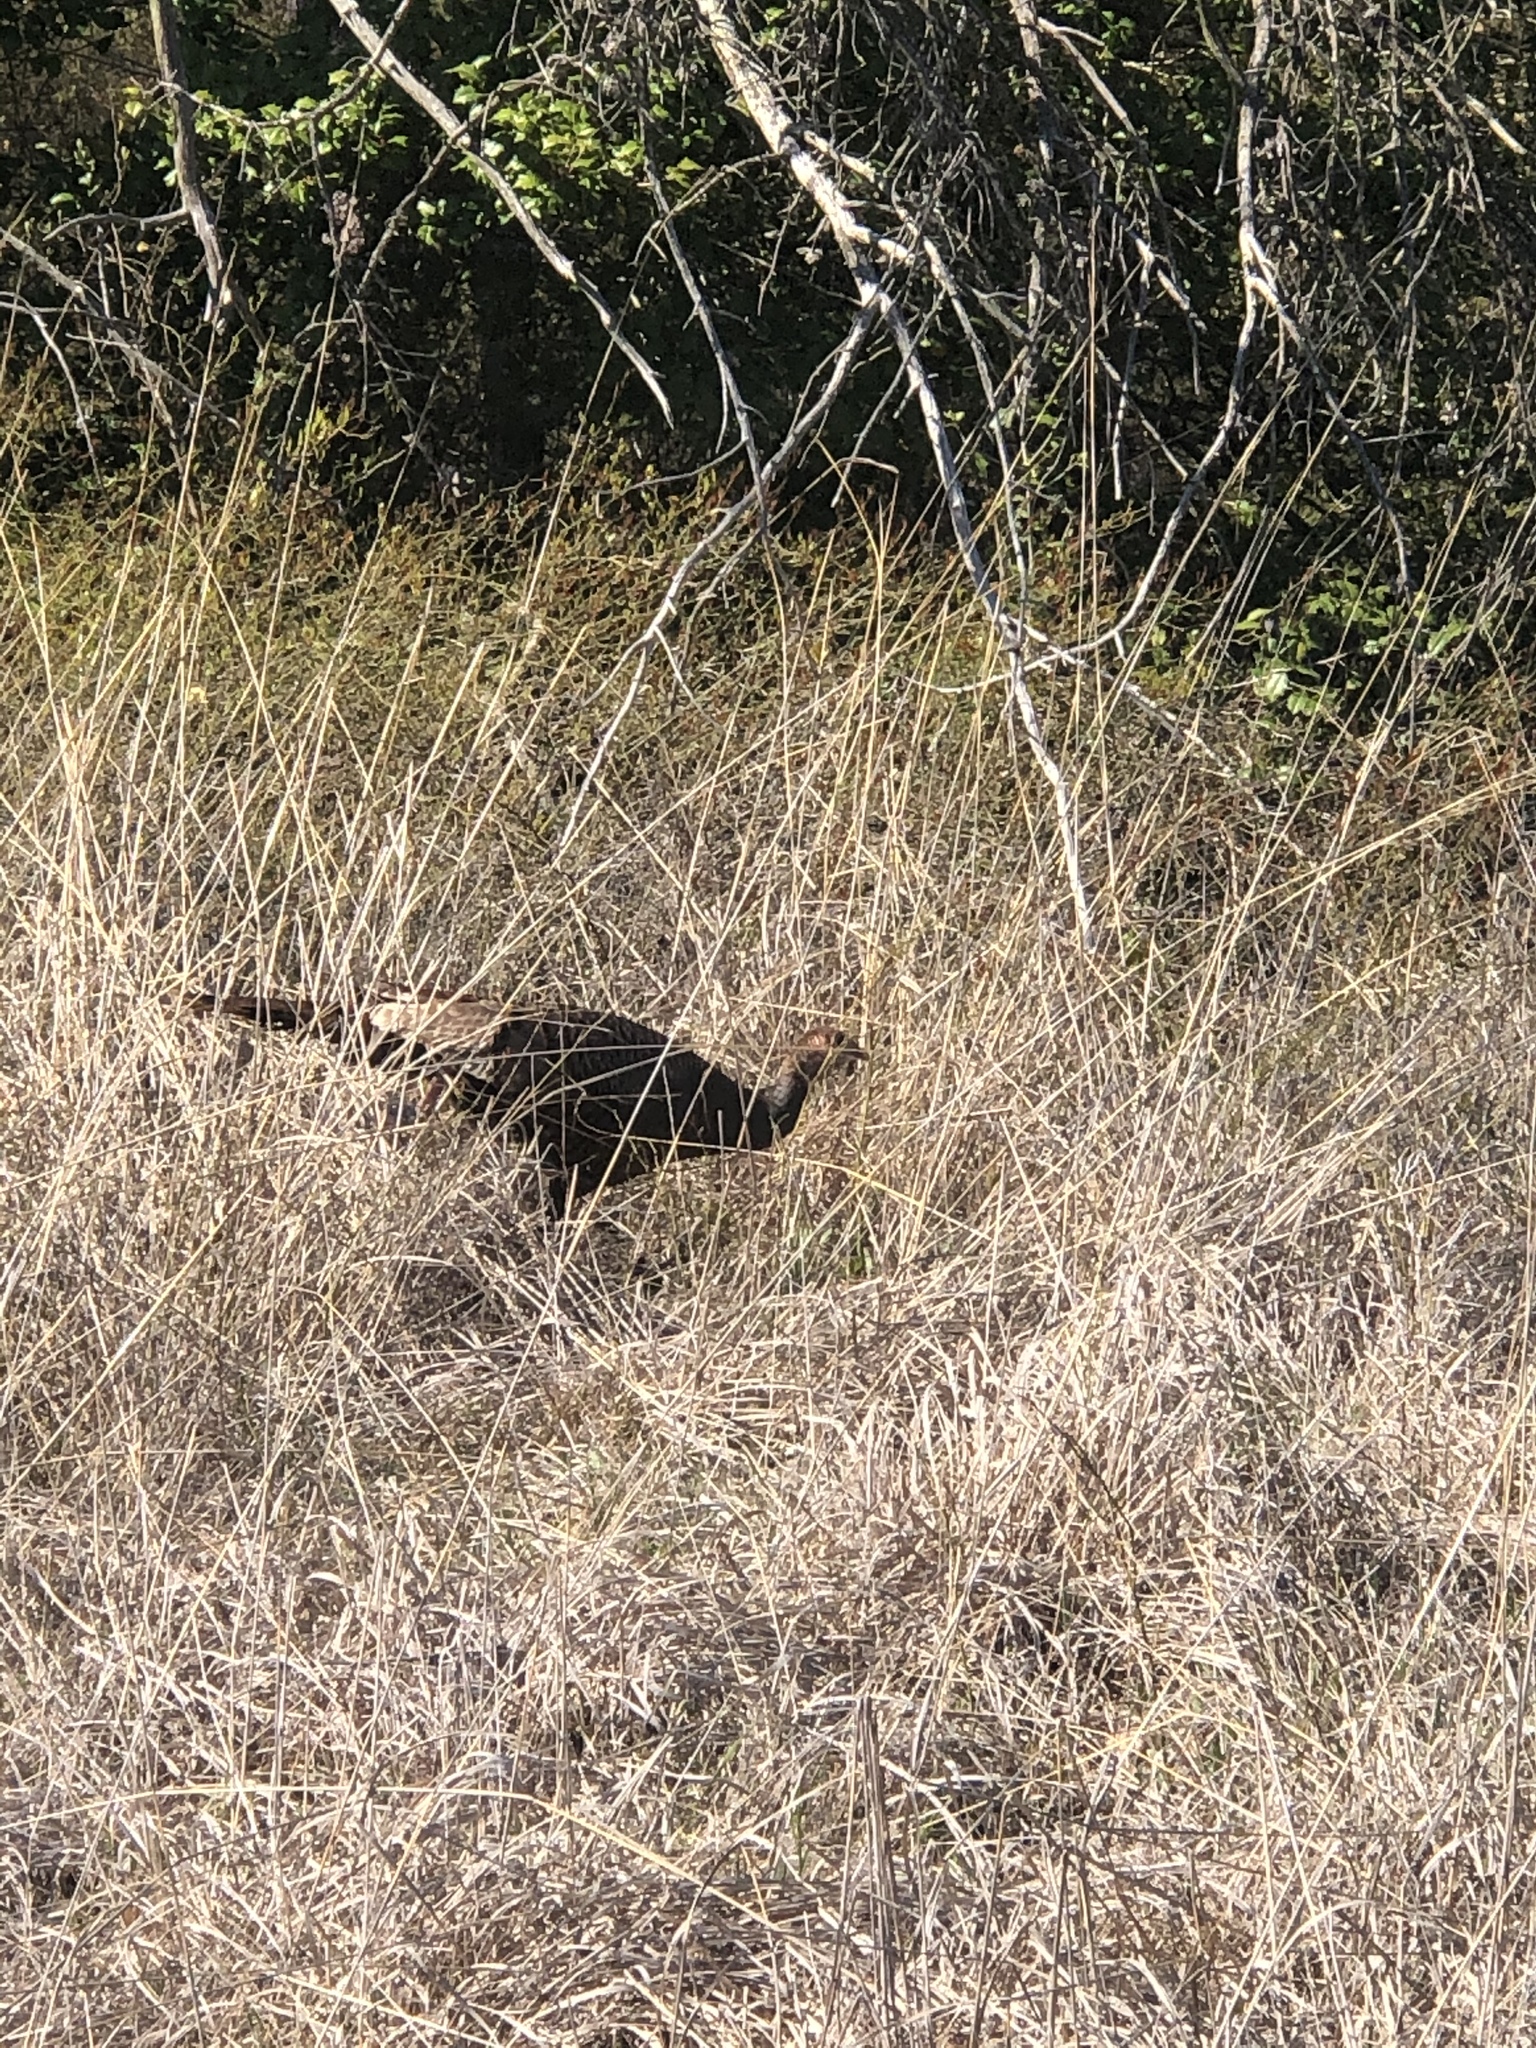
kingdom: Animalia
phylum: Chordata
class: Aves
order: Galliformes
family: Phasianidae
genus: Meleagris
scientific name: Meleagris gallopavo
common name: Wild turkey
